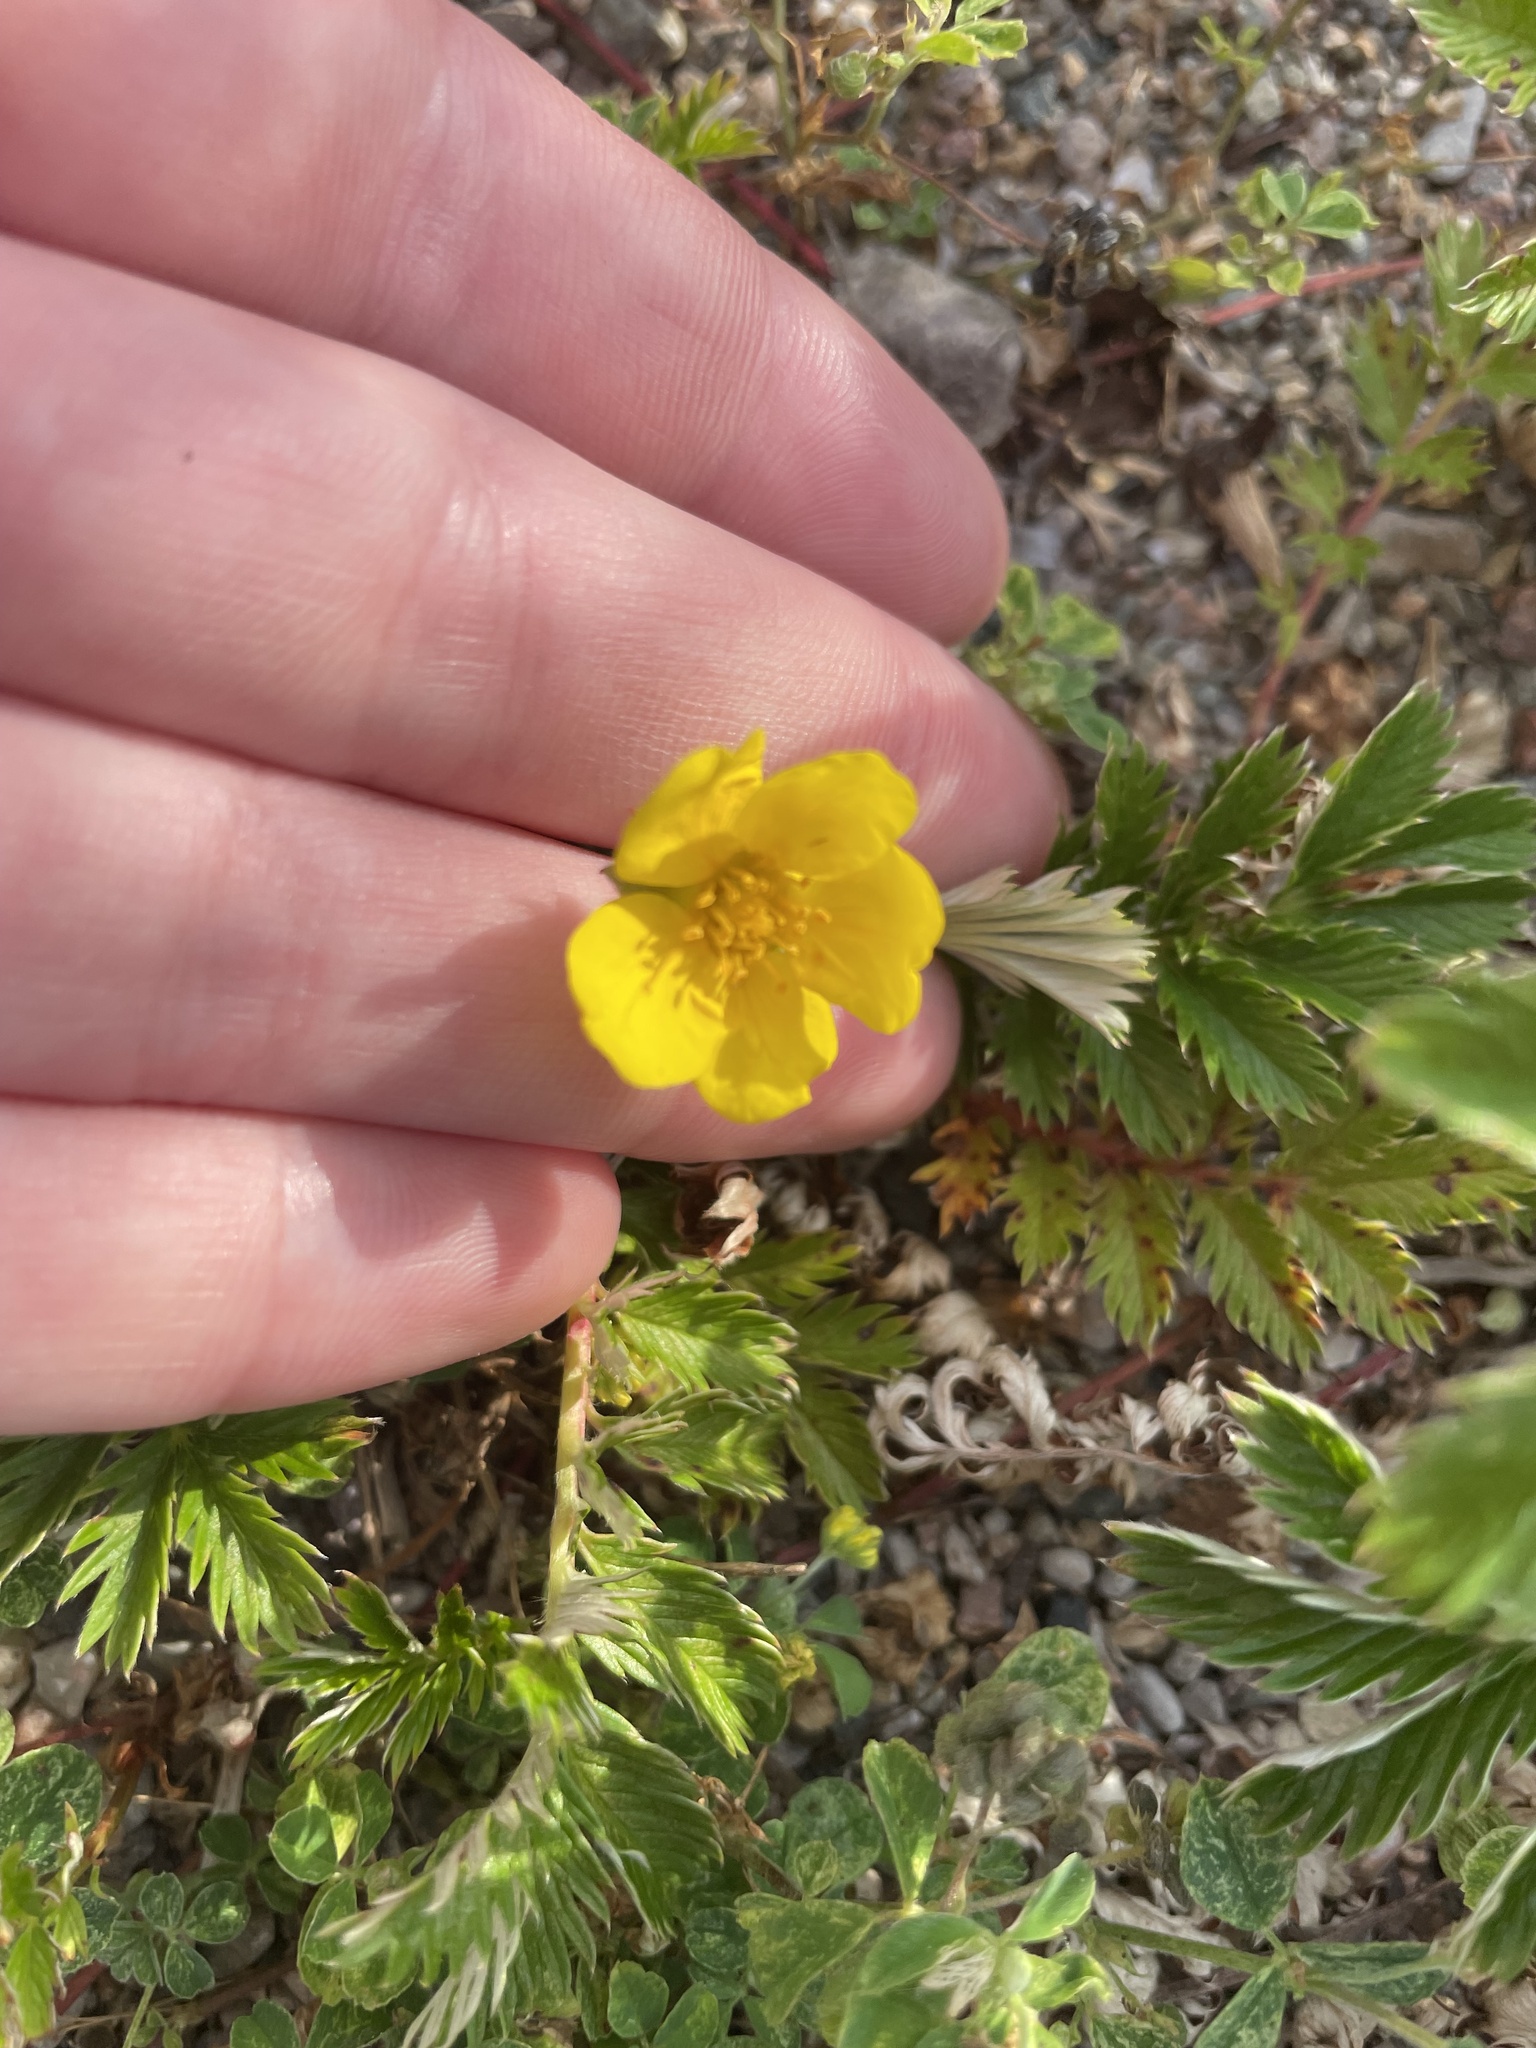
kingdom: Plantae
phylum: Tracheophyta
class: Magnoliopsida
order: Rosales
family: Rosaceae
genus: Argentina
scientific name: Argentina anserina
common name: Common silverweed
